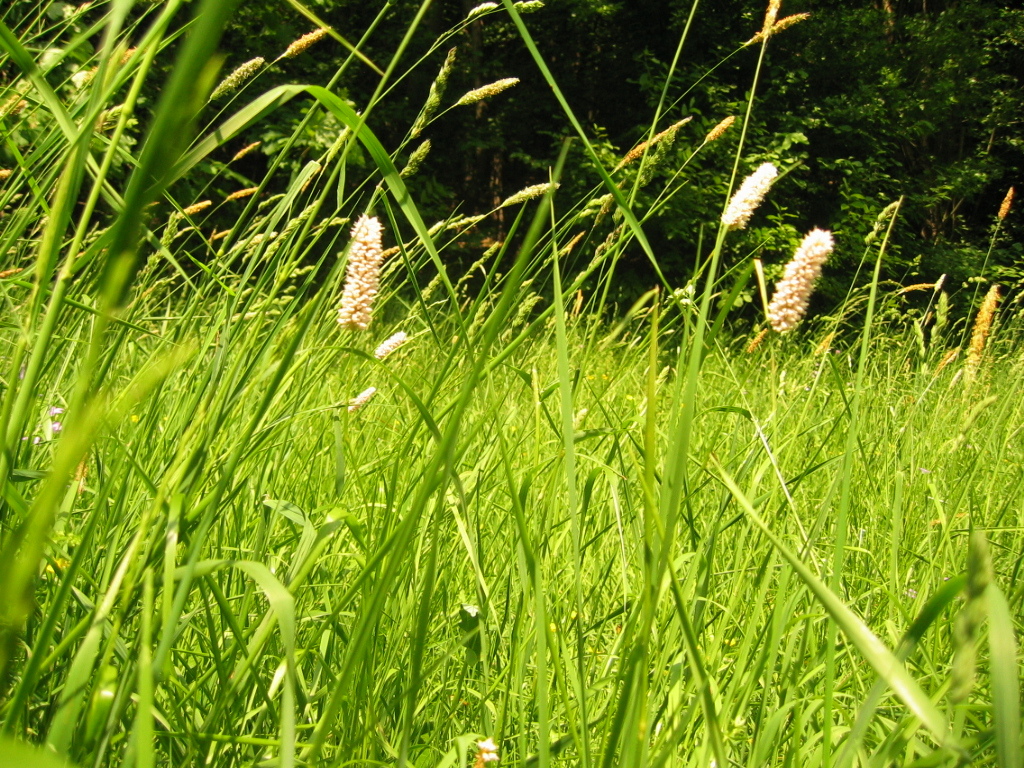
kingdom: Plantae
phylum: Tracheophyta
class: Magnoliopsida
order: Caryophyllales
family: Polygonaceae
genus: Bistorta
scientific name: Bistorta officinalis
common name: Common bistort
